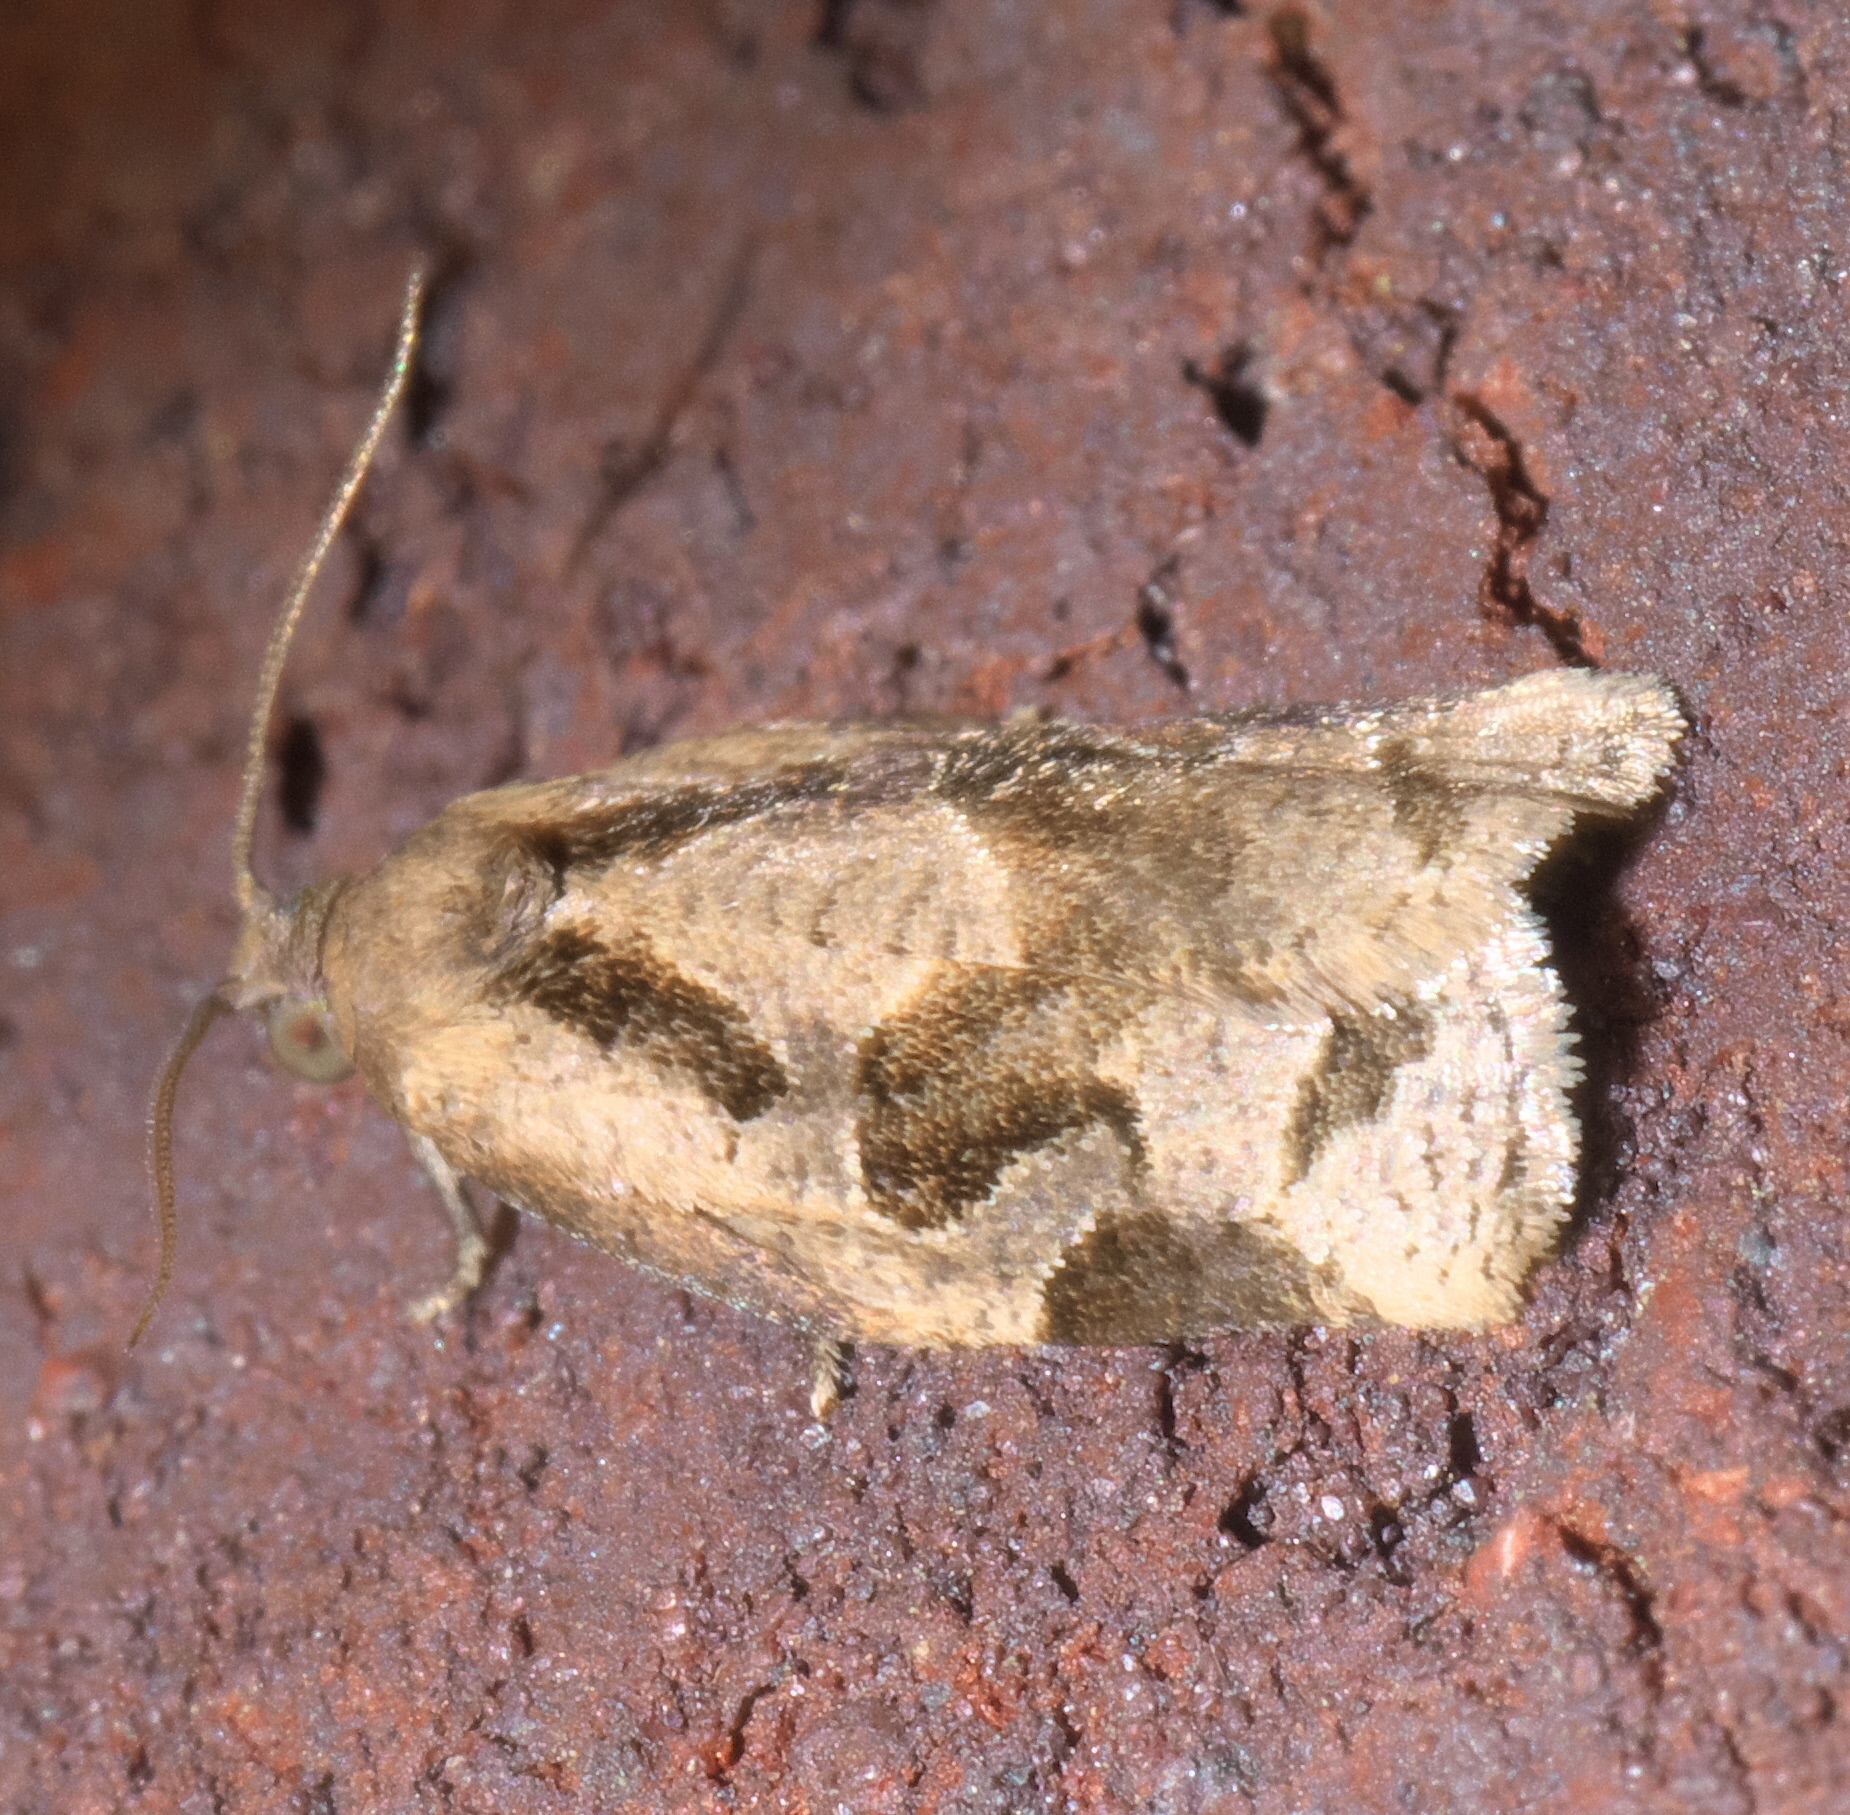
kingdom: Animalia
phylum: Arthropoda
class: Insecta
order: Lepidoptera
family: Tortricidae
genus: Archips
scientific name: Archips grisea
